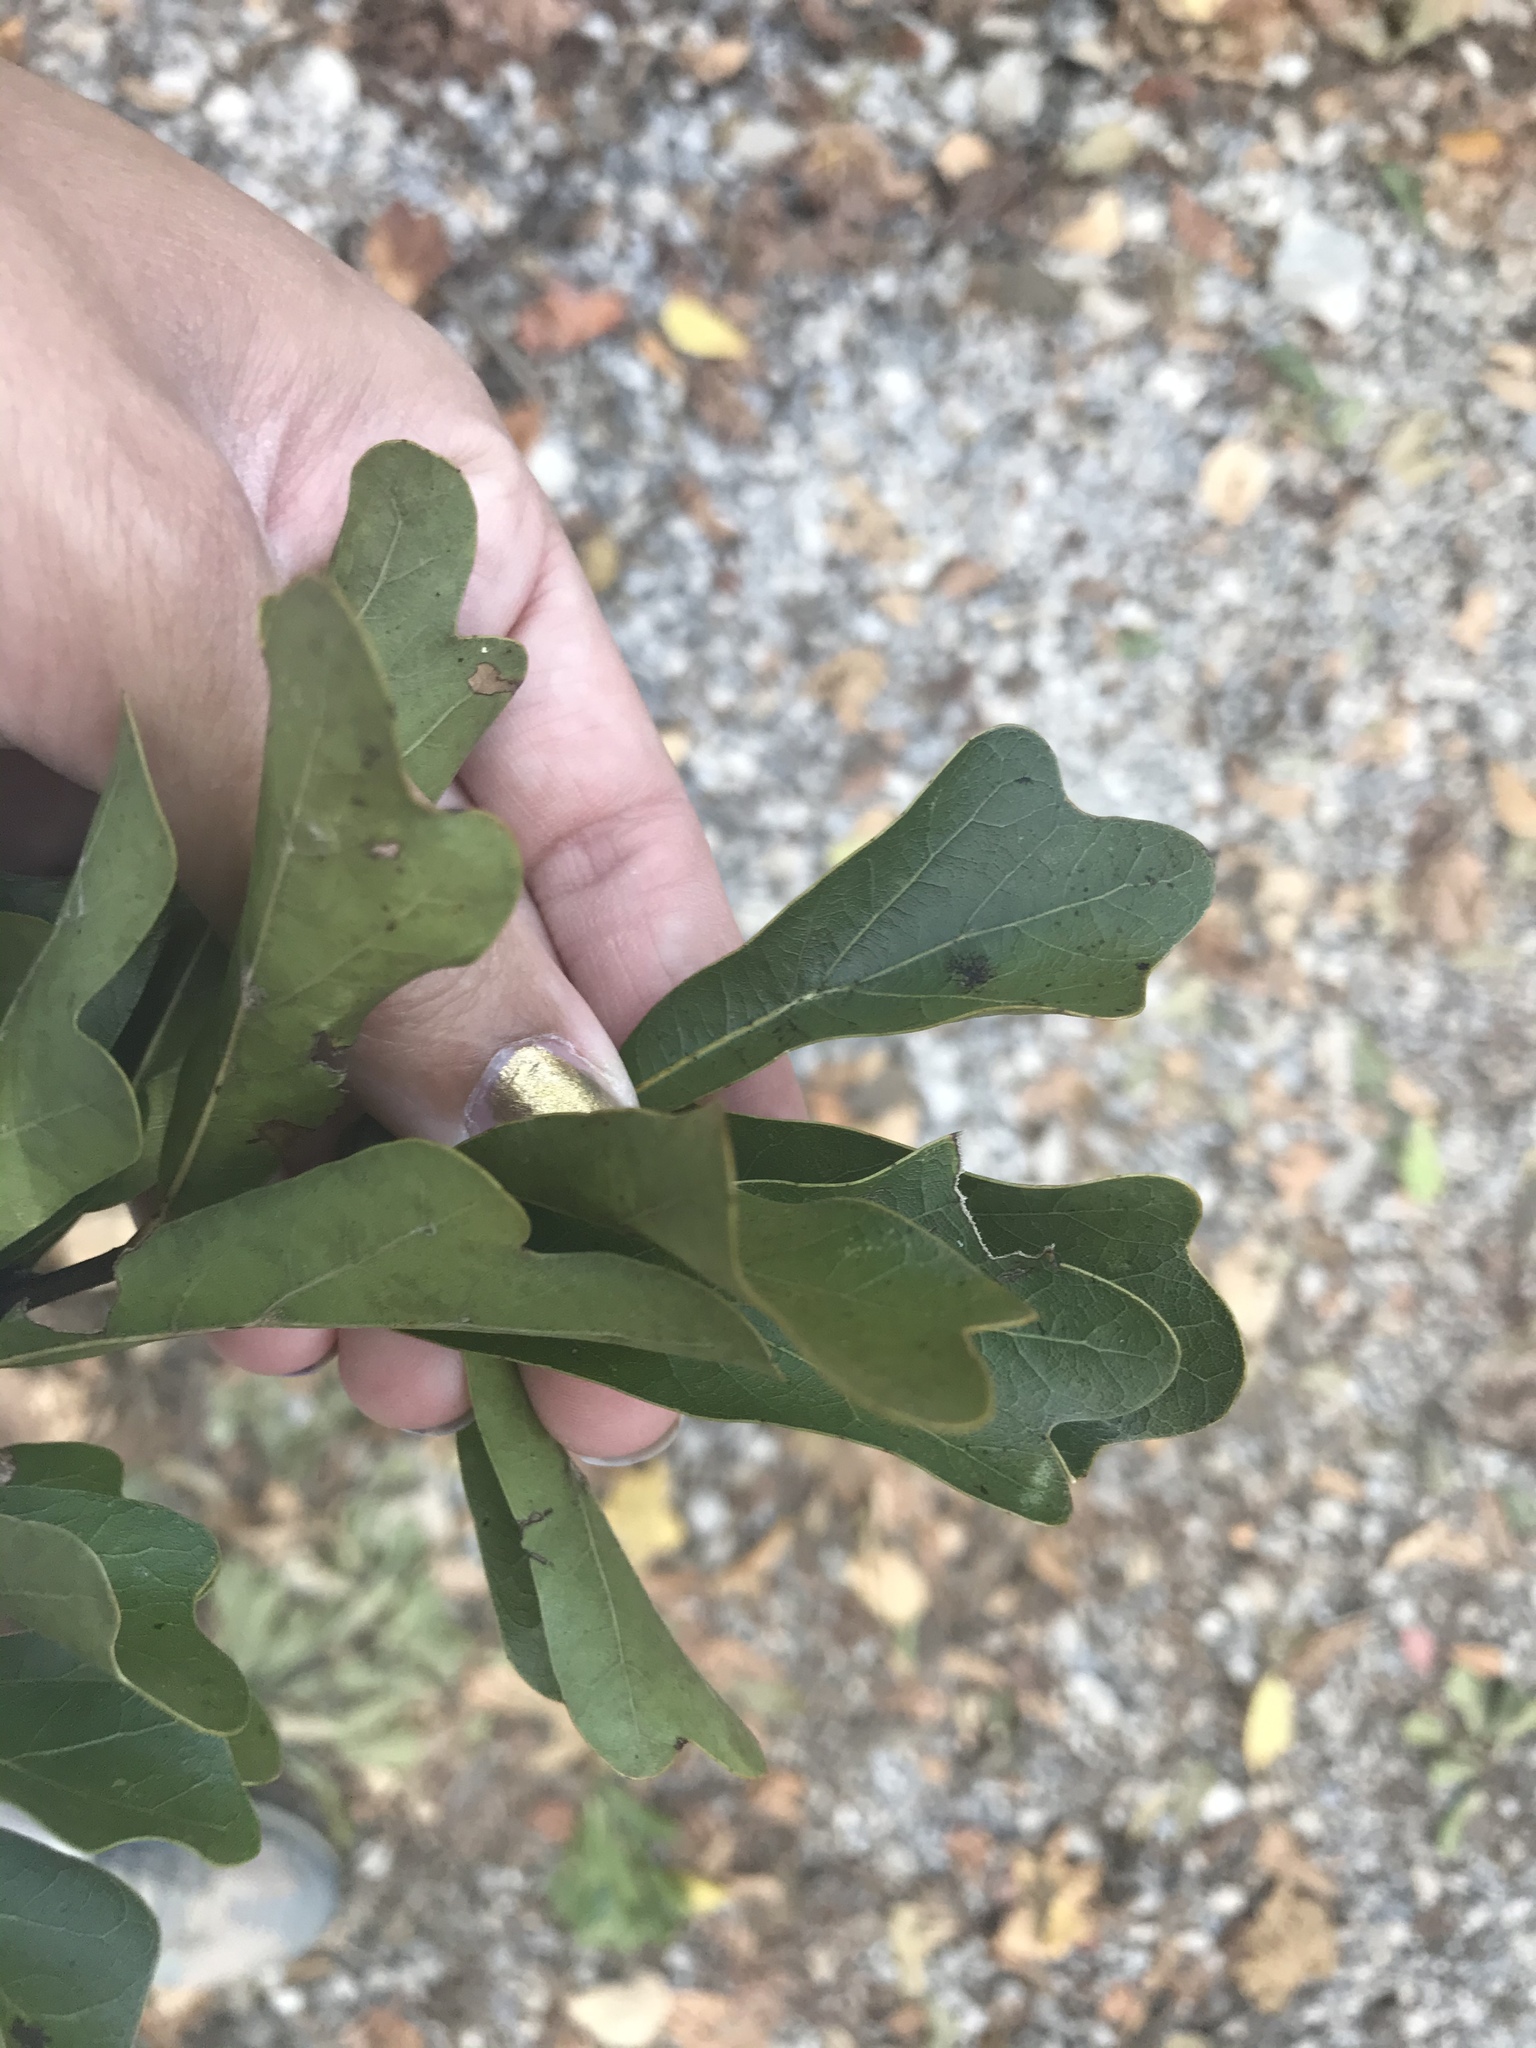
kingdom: Plantae
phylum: Tracheophyta
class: Magnoliopsida
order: Fagales
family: Fagaceae
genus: Quercus
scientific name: Quercus nigra
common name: Water oak
